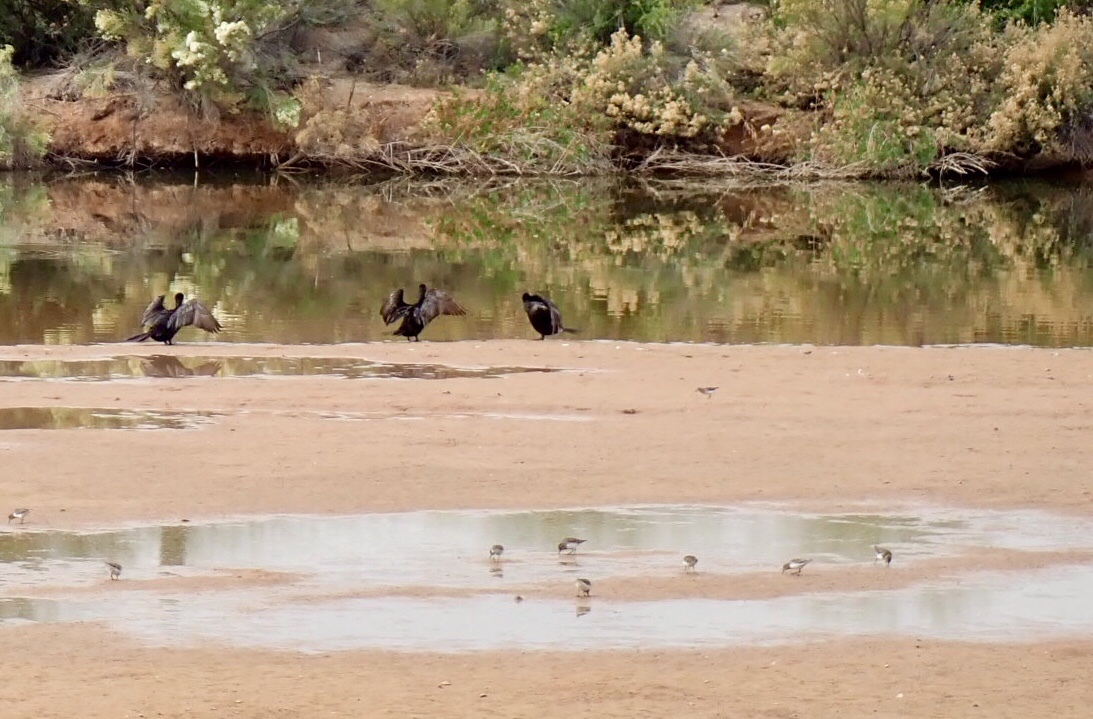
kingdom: Animalia
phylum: Chordata
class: Aves
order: Suliformes
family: Phalacrocoracidae
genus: Phalacrocorax
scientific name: Phalacrocorax brasilianus
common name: Neotropic cormorant
